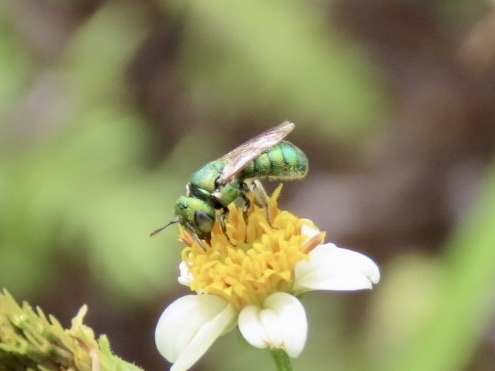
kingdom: Animalia
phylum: Arthropoda
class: Insecta
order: Hymenoptera
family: Apidae
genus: Ceratina
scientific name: Ceratina smaragdula
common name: Small carpenter bee
